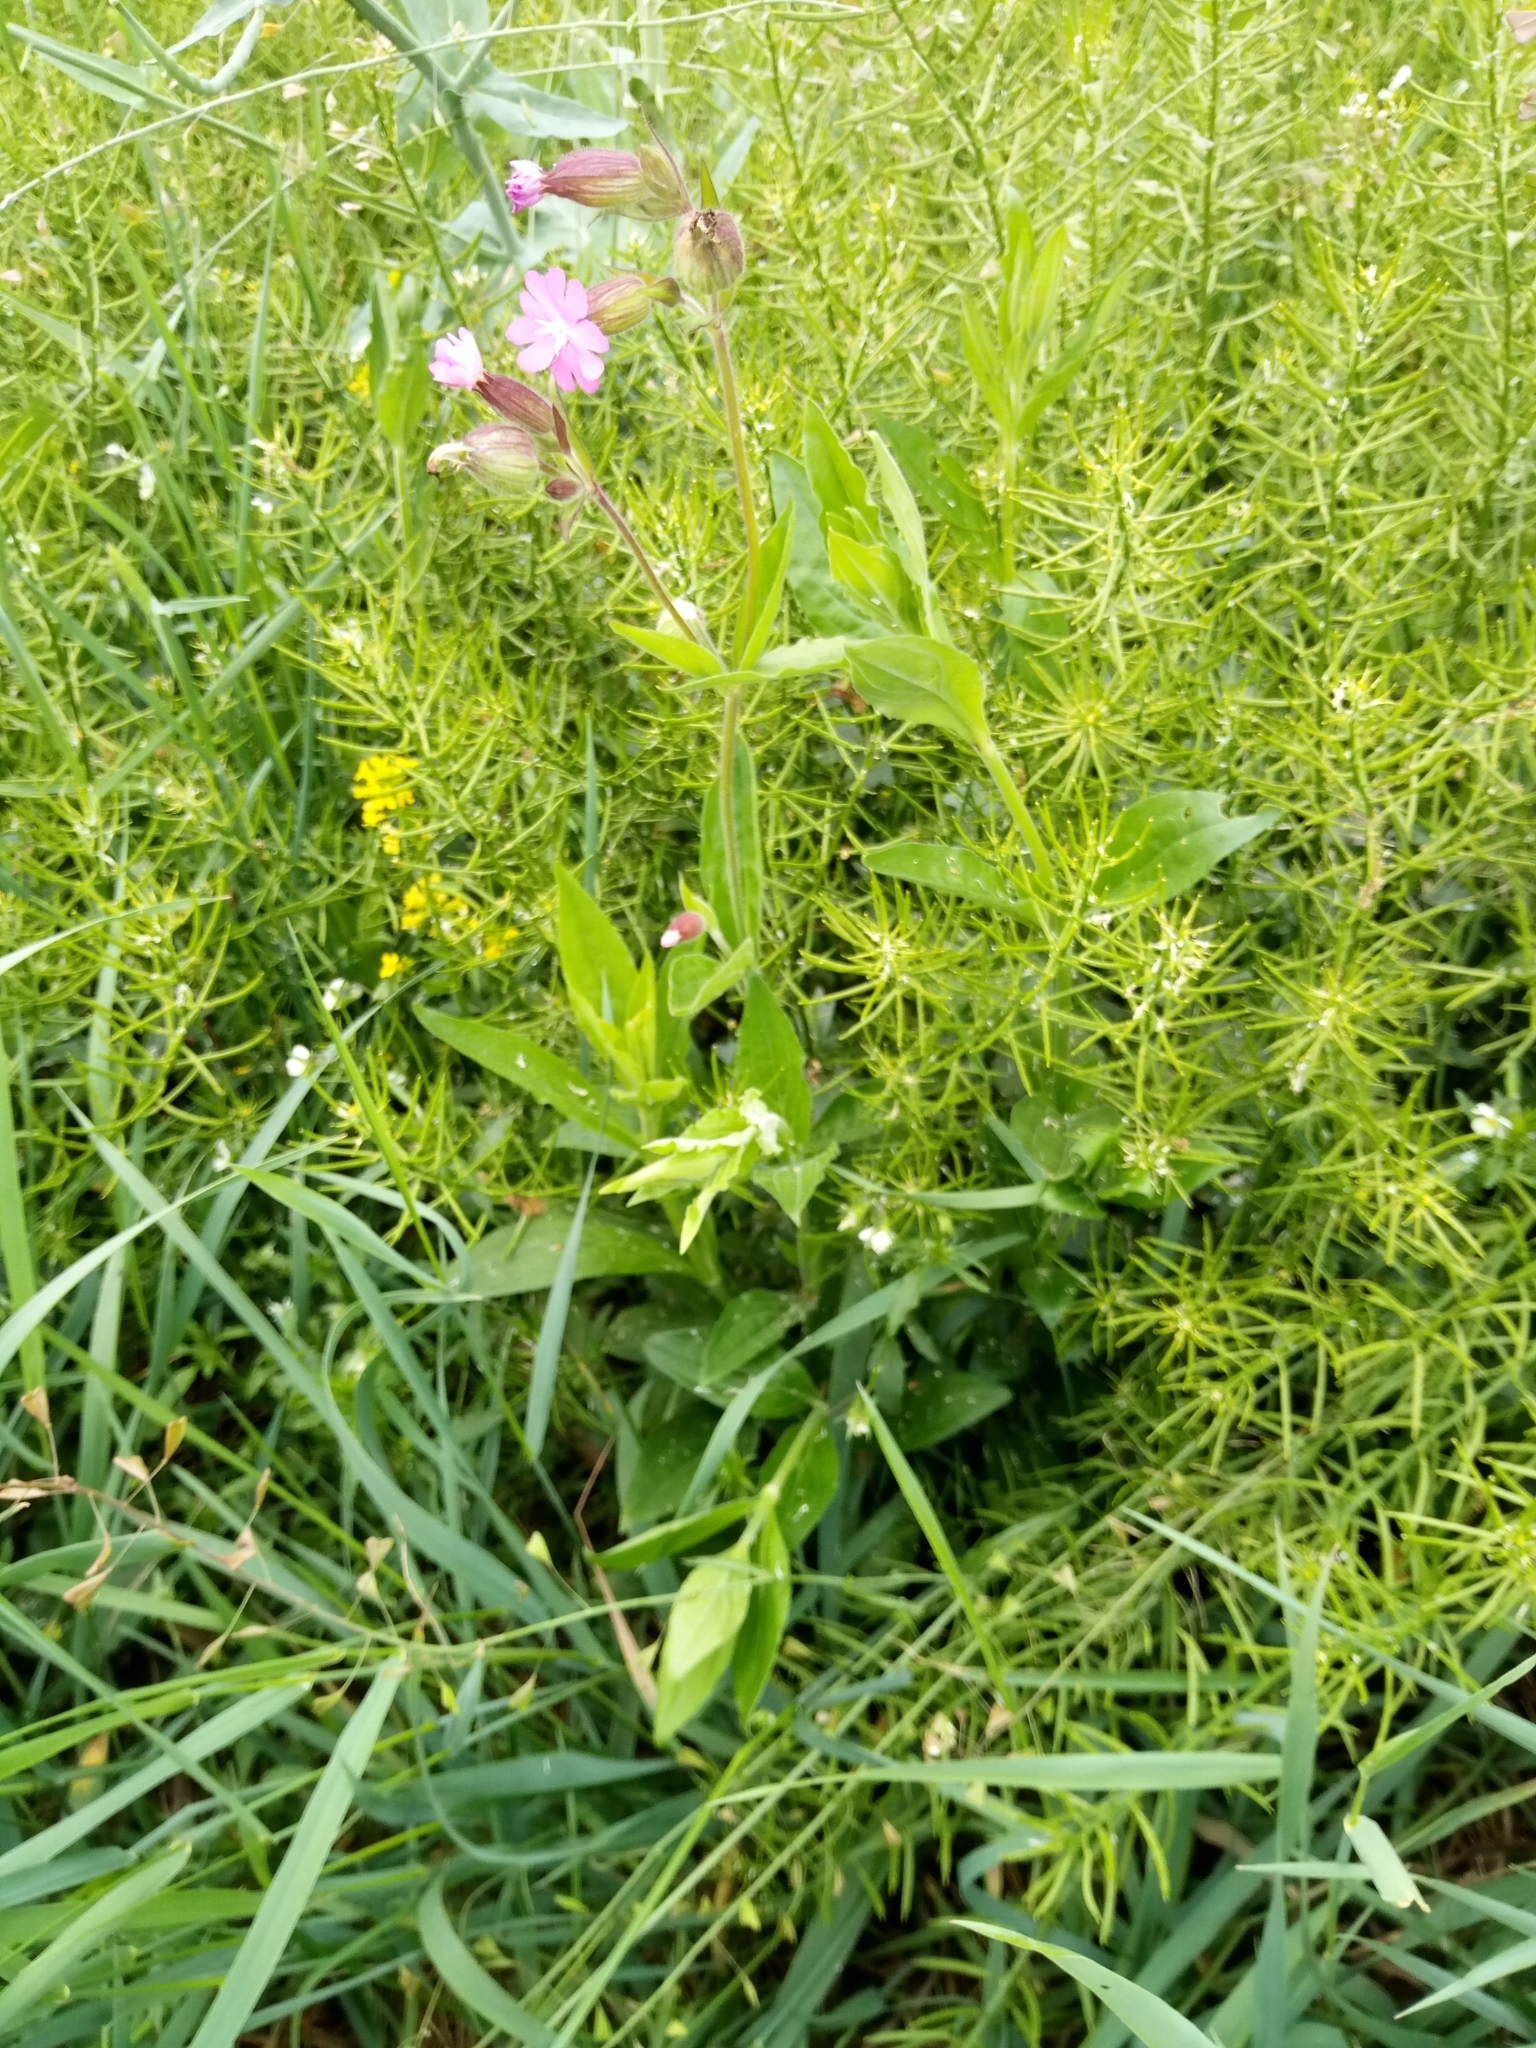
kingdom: Plantae
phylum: Tracheophyta
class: Magnoliopsida
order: Caryophyllales
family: Caryophyllaceae
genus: Silene
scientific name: Silene dioica
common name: Red campion
